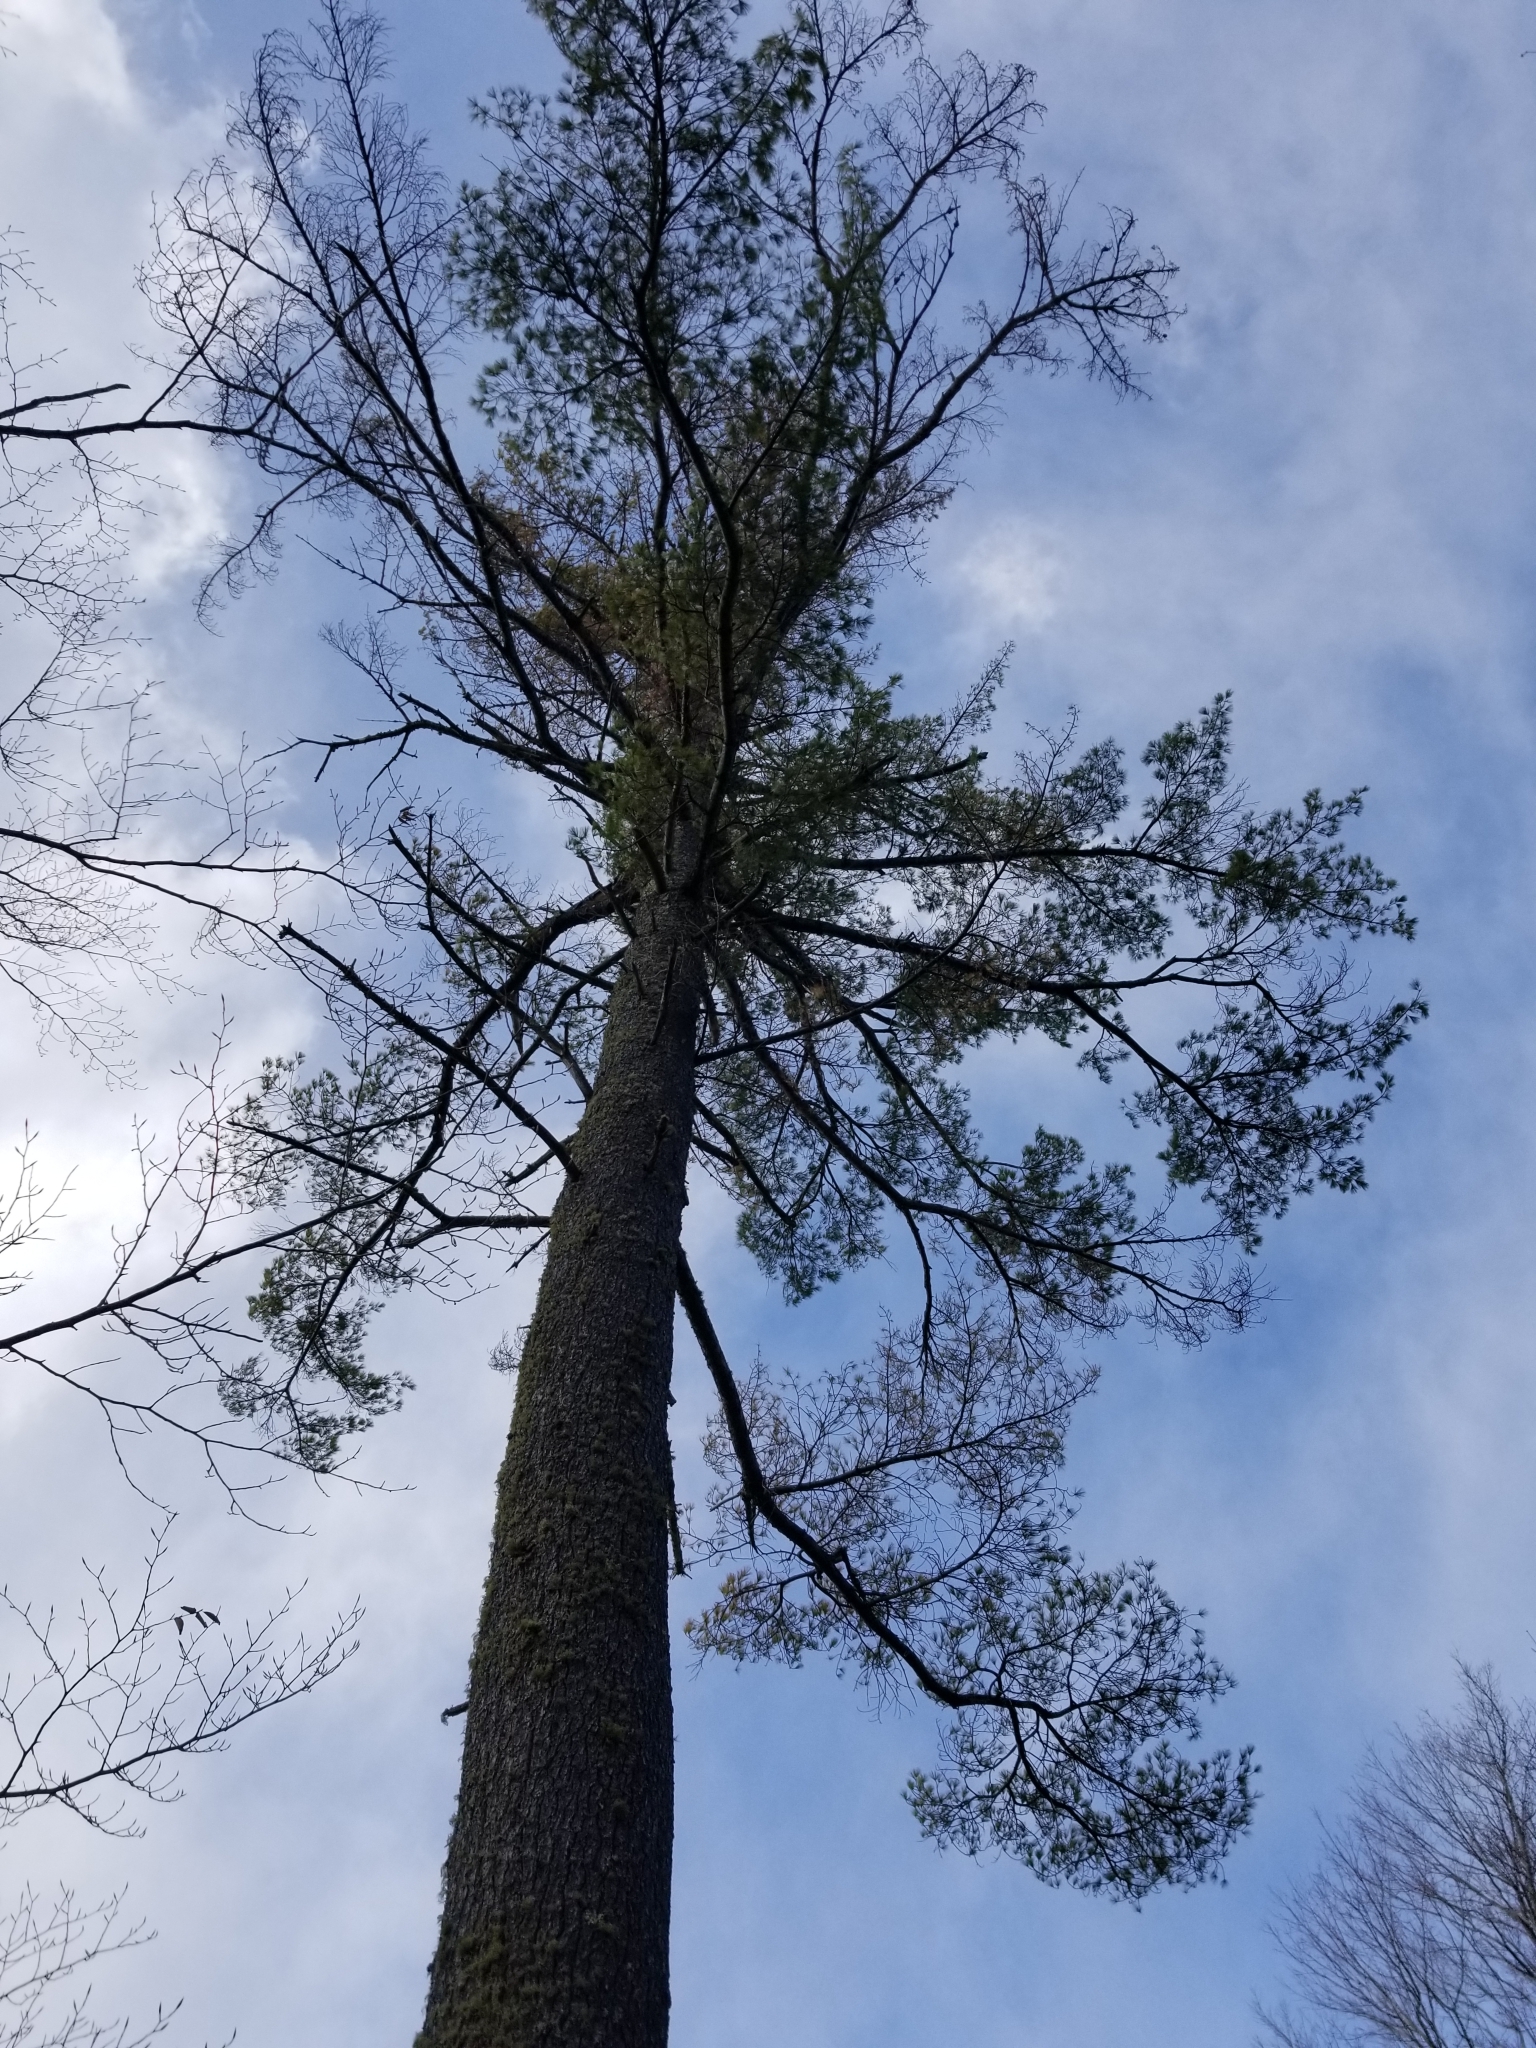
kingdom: Plantae
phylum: Tracheophyta
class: Pinopsida
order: Pinales
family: Pinaceae
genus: Pinus
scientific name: Pinus strobus
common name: Weymouth pine
